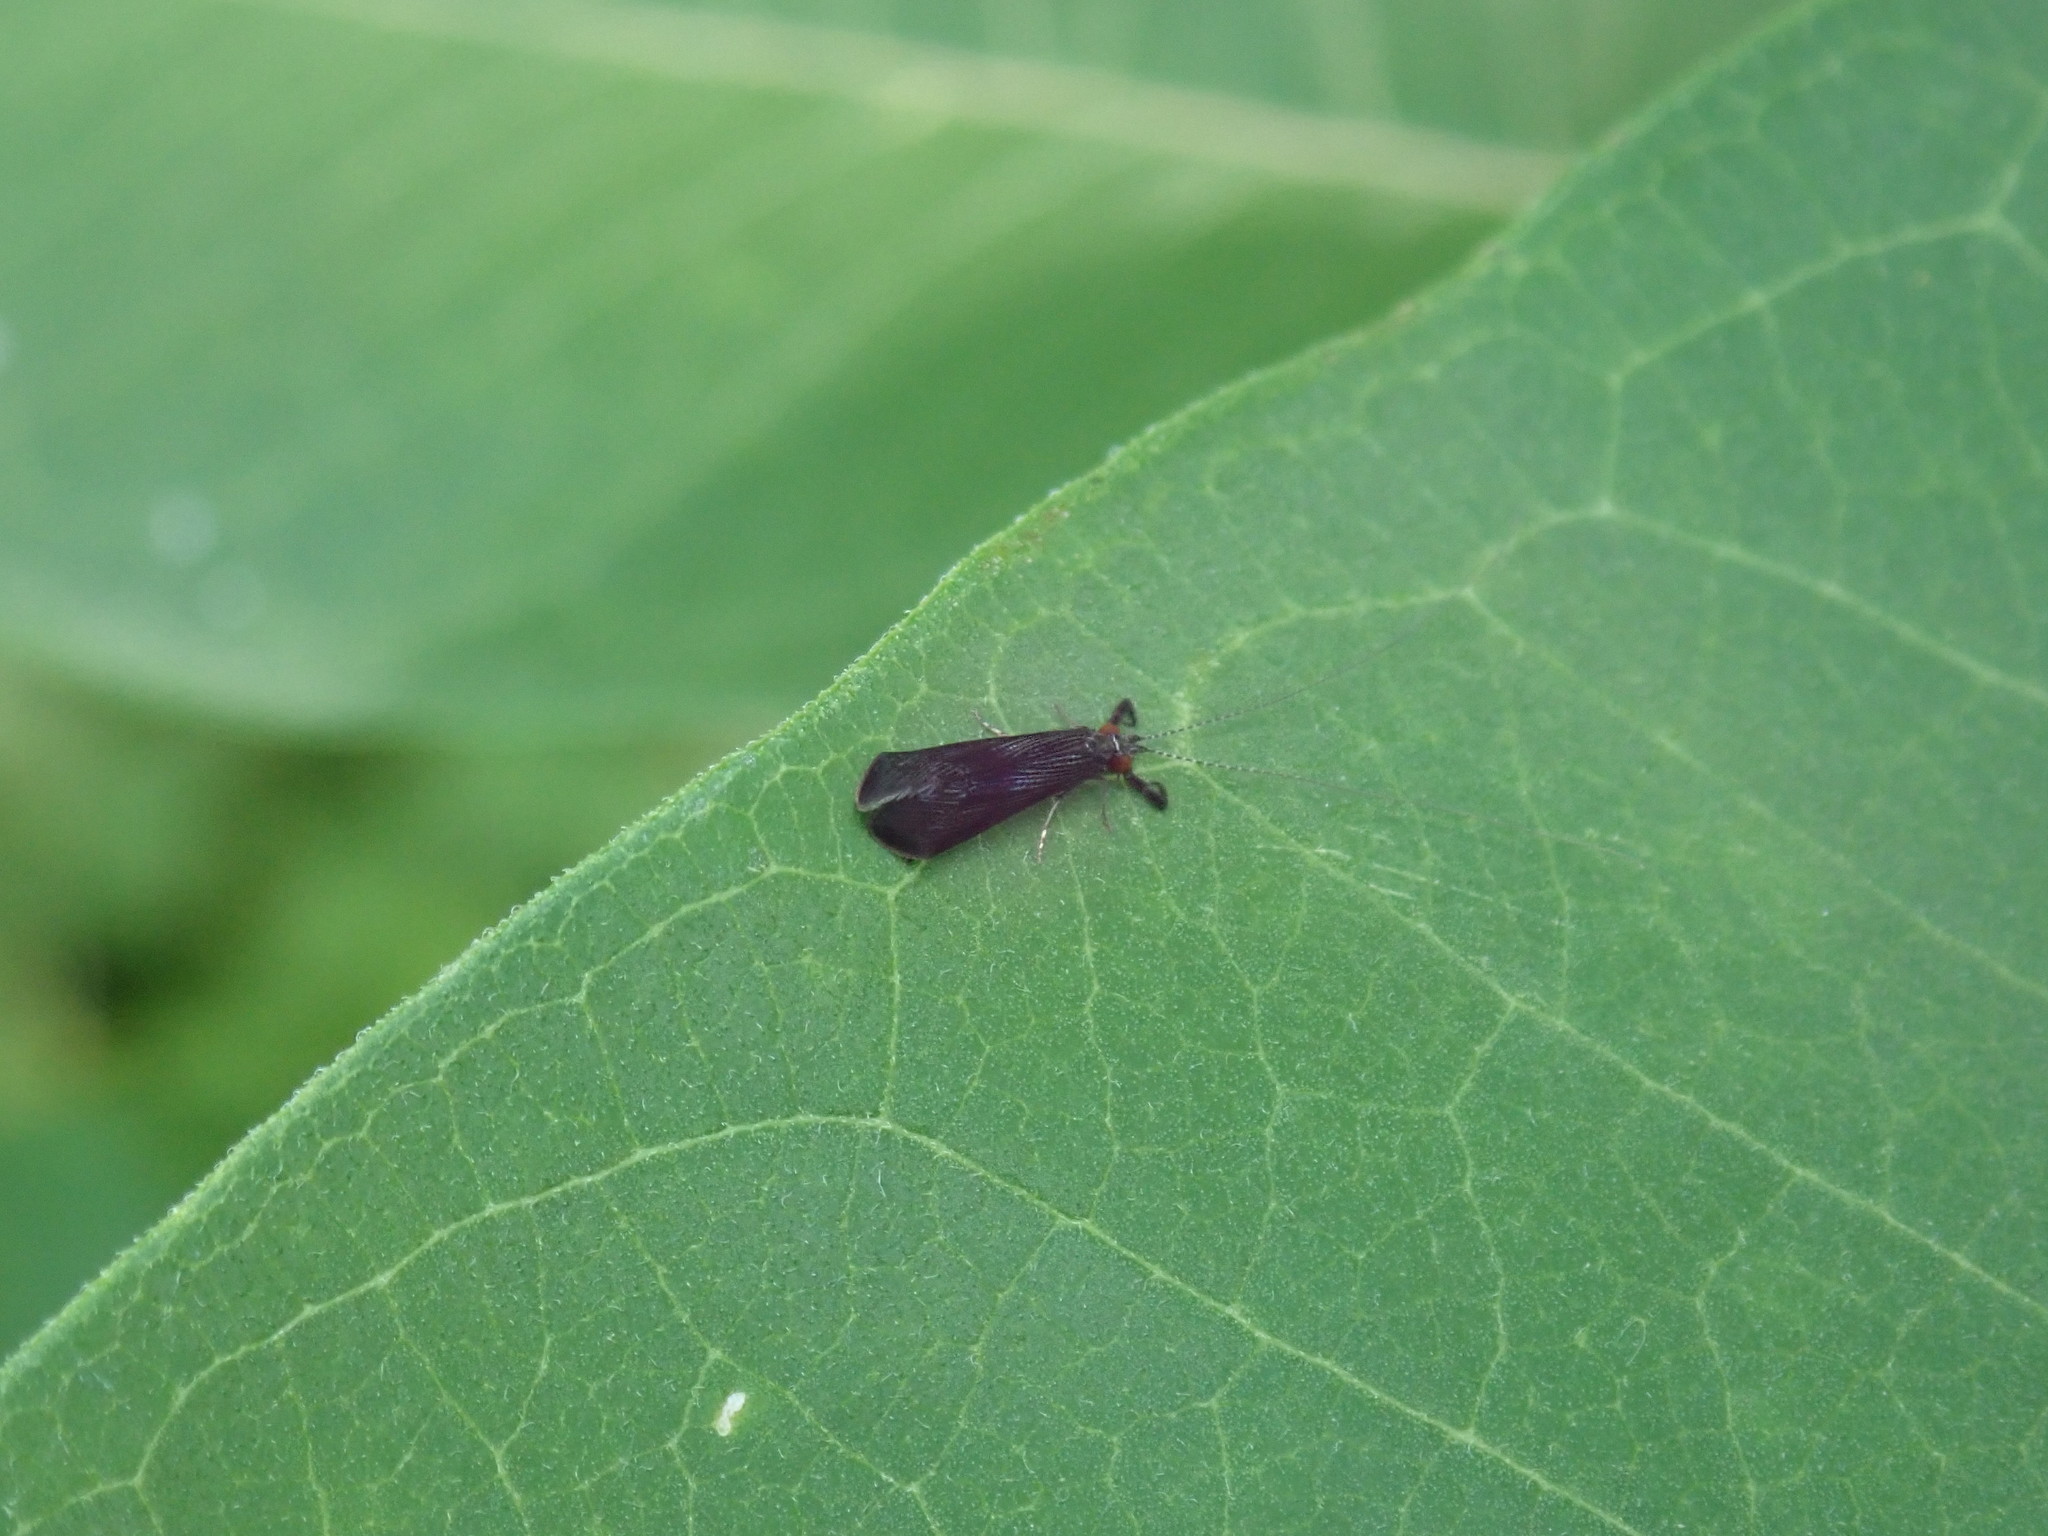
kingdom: Animalia
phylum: Arthropoda
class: Insecta
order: Trichoptera
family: Leptoceridae
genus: Mystacides
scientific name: Mystacides sepulchralis
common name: Black dancer caddisfly
